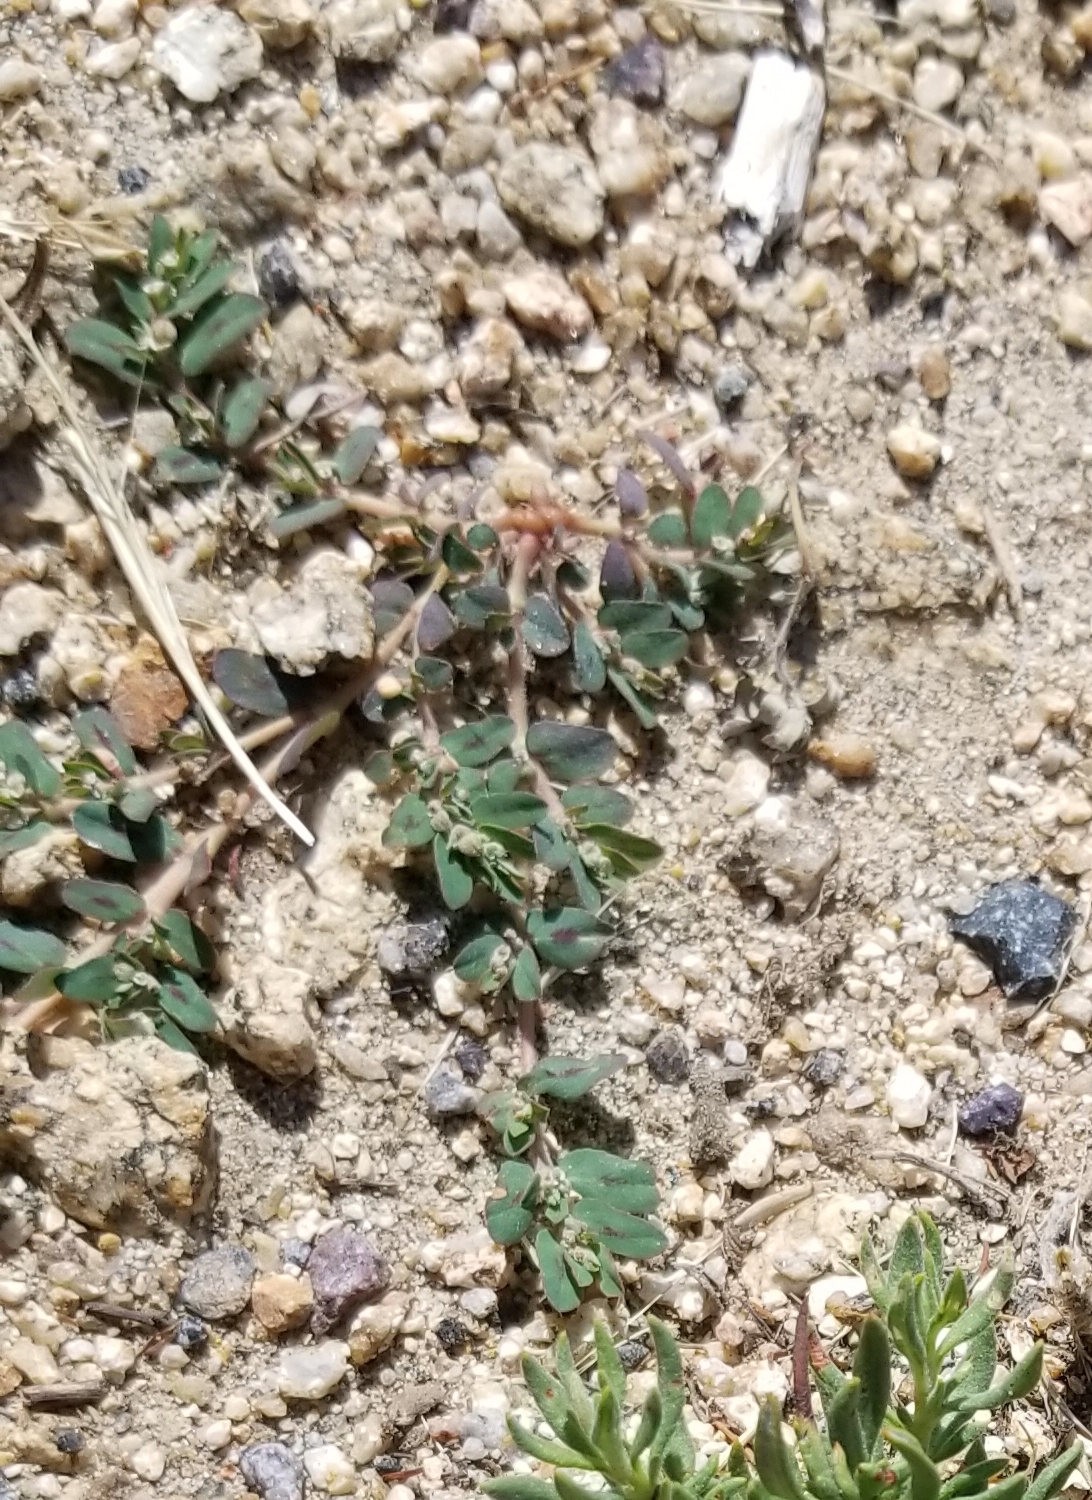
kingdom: Plantae
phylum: Tracheophyta
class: Magnoliopsida
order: Malpighiales
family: Euphorbiaceae
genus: Euphorbia
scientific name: Euphorbia maculata
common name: Spotted spurge
